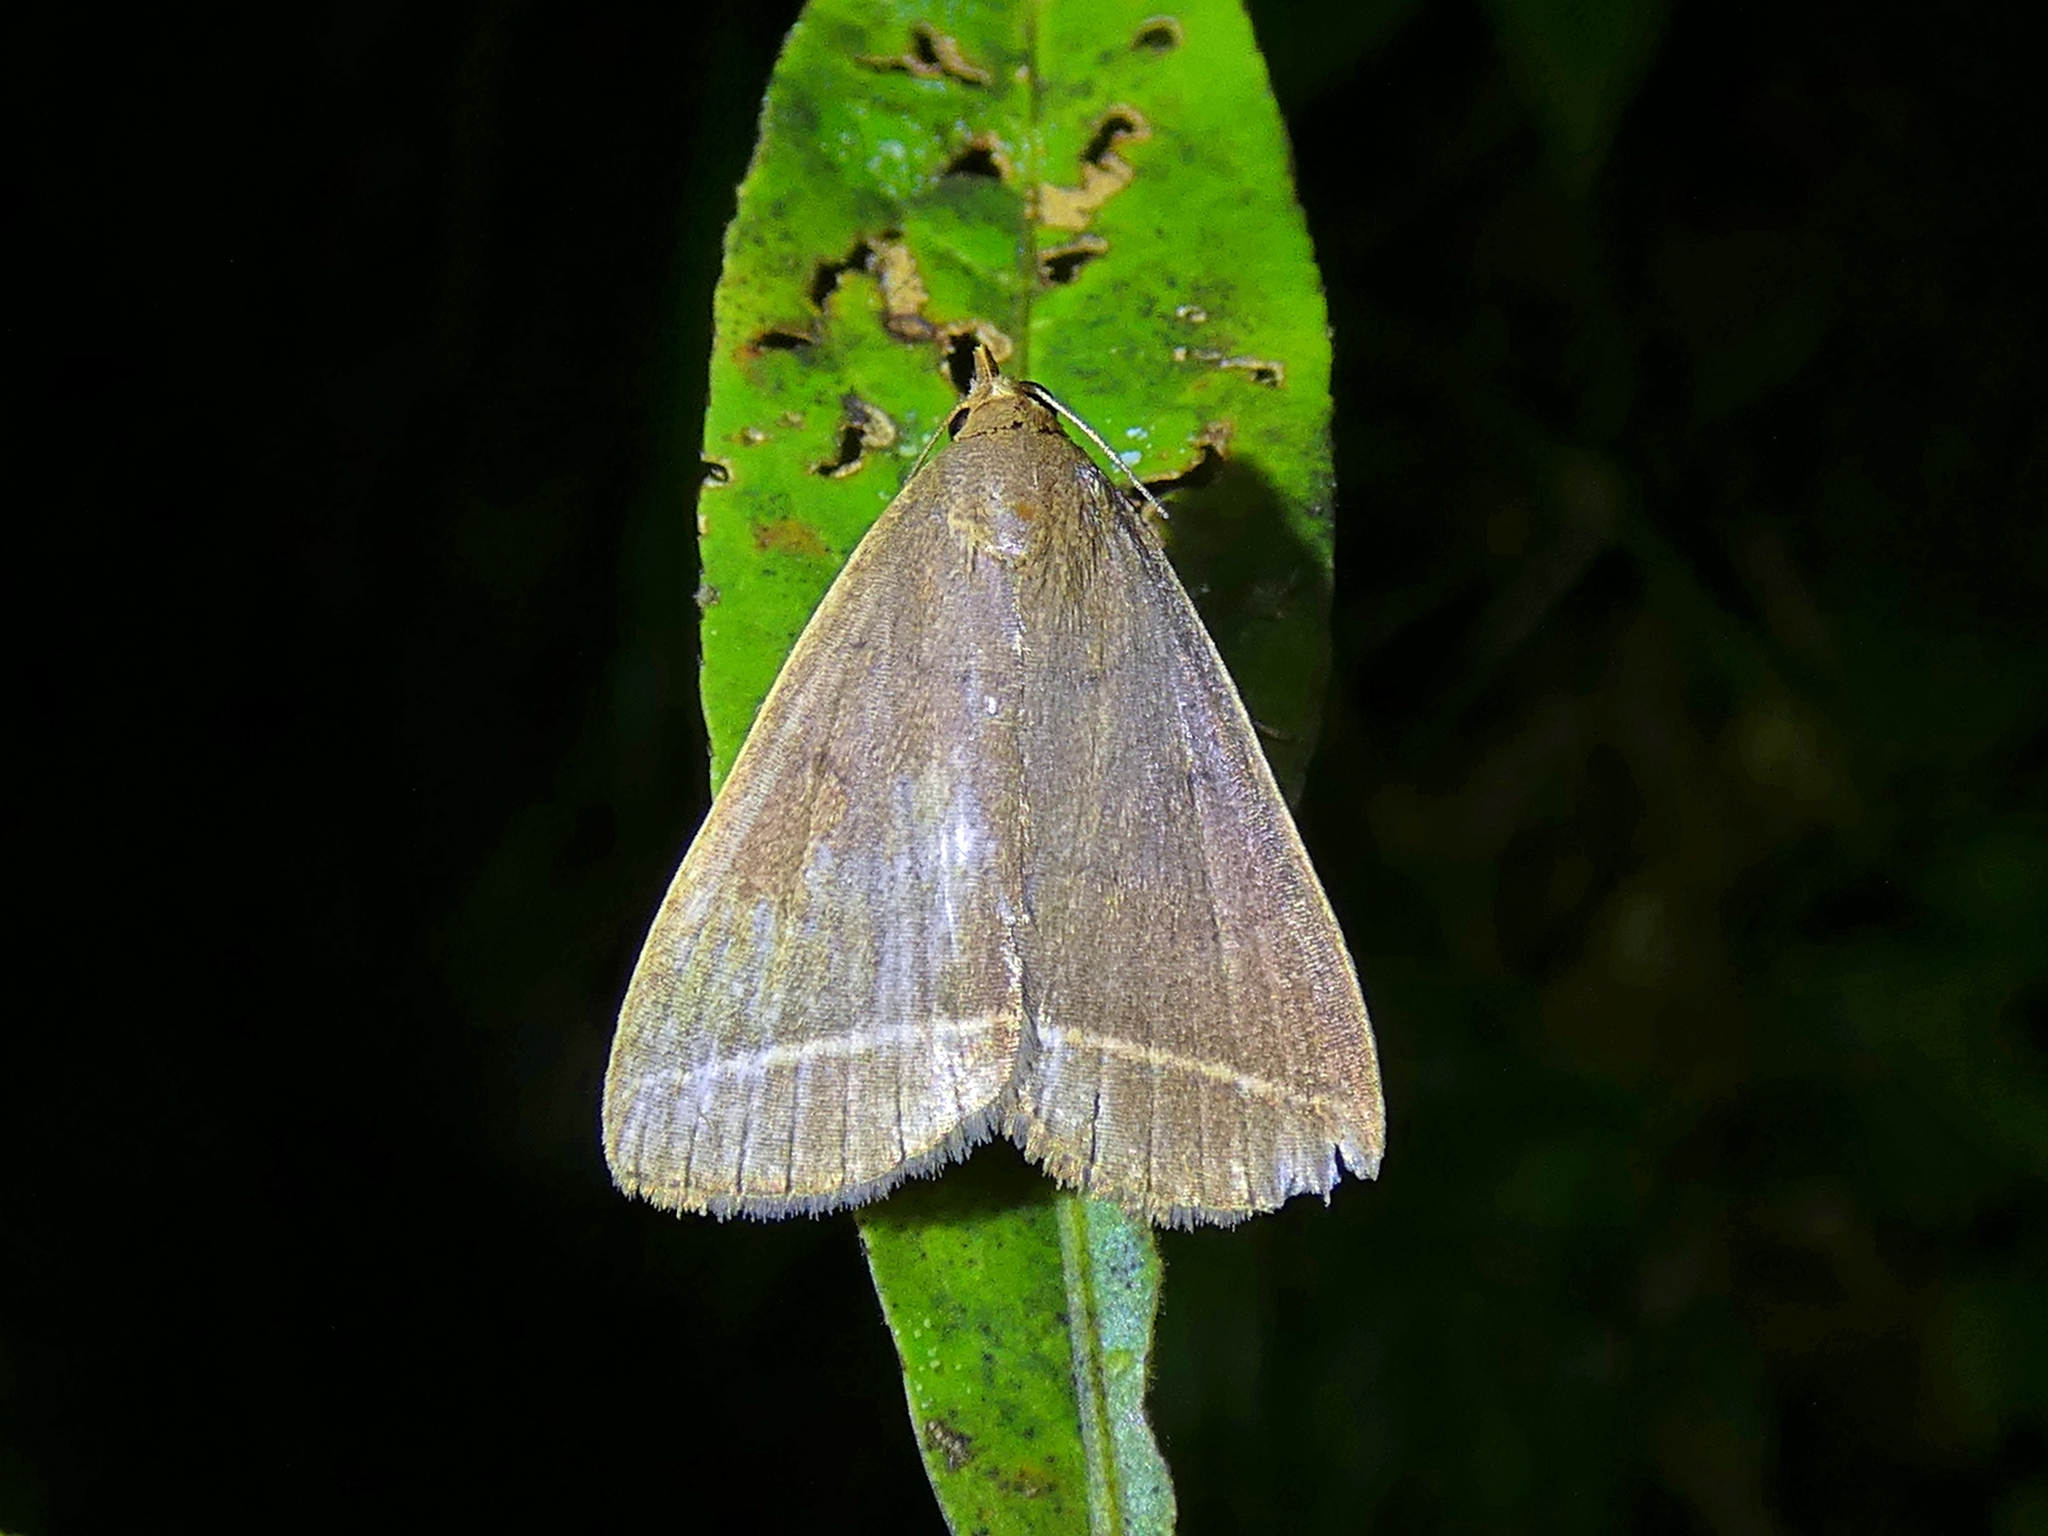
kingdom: Animalia
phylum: Arthropoda
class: Insecta
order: Lepidoptera
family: Erebidae
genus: Simplicia
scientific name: Simplicia cornicalis
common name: Tiki hut litter moth
